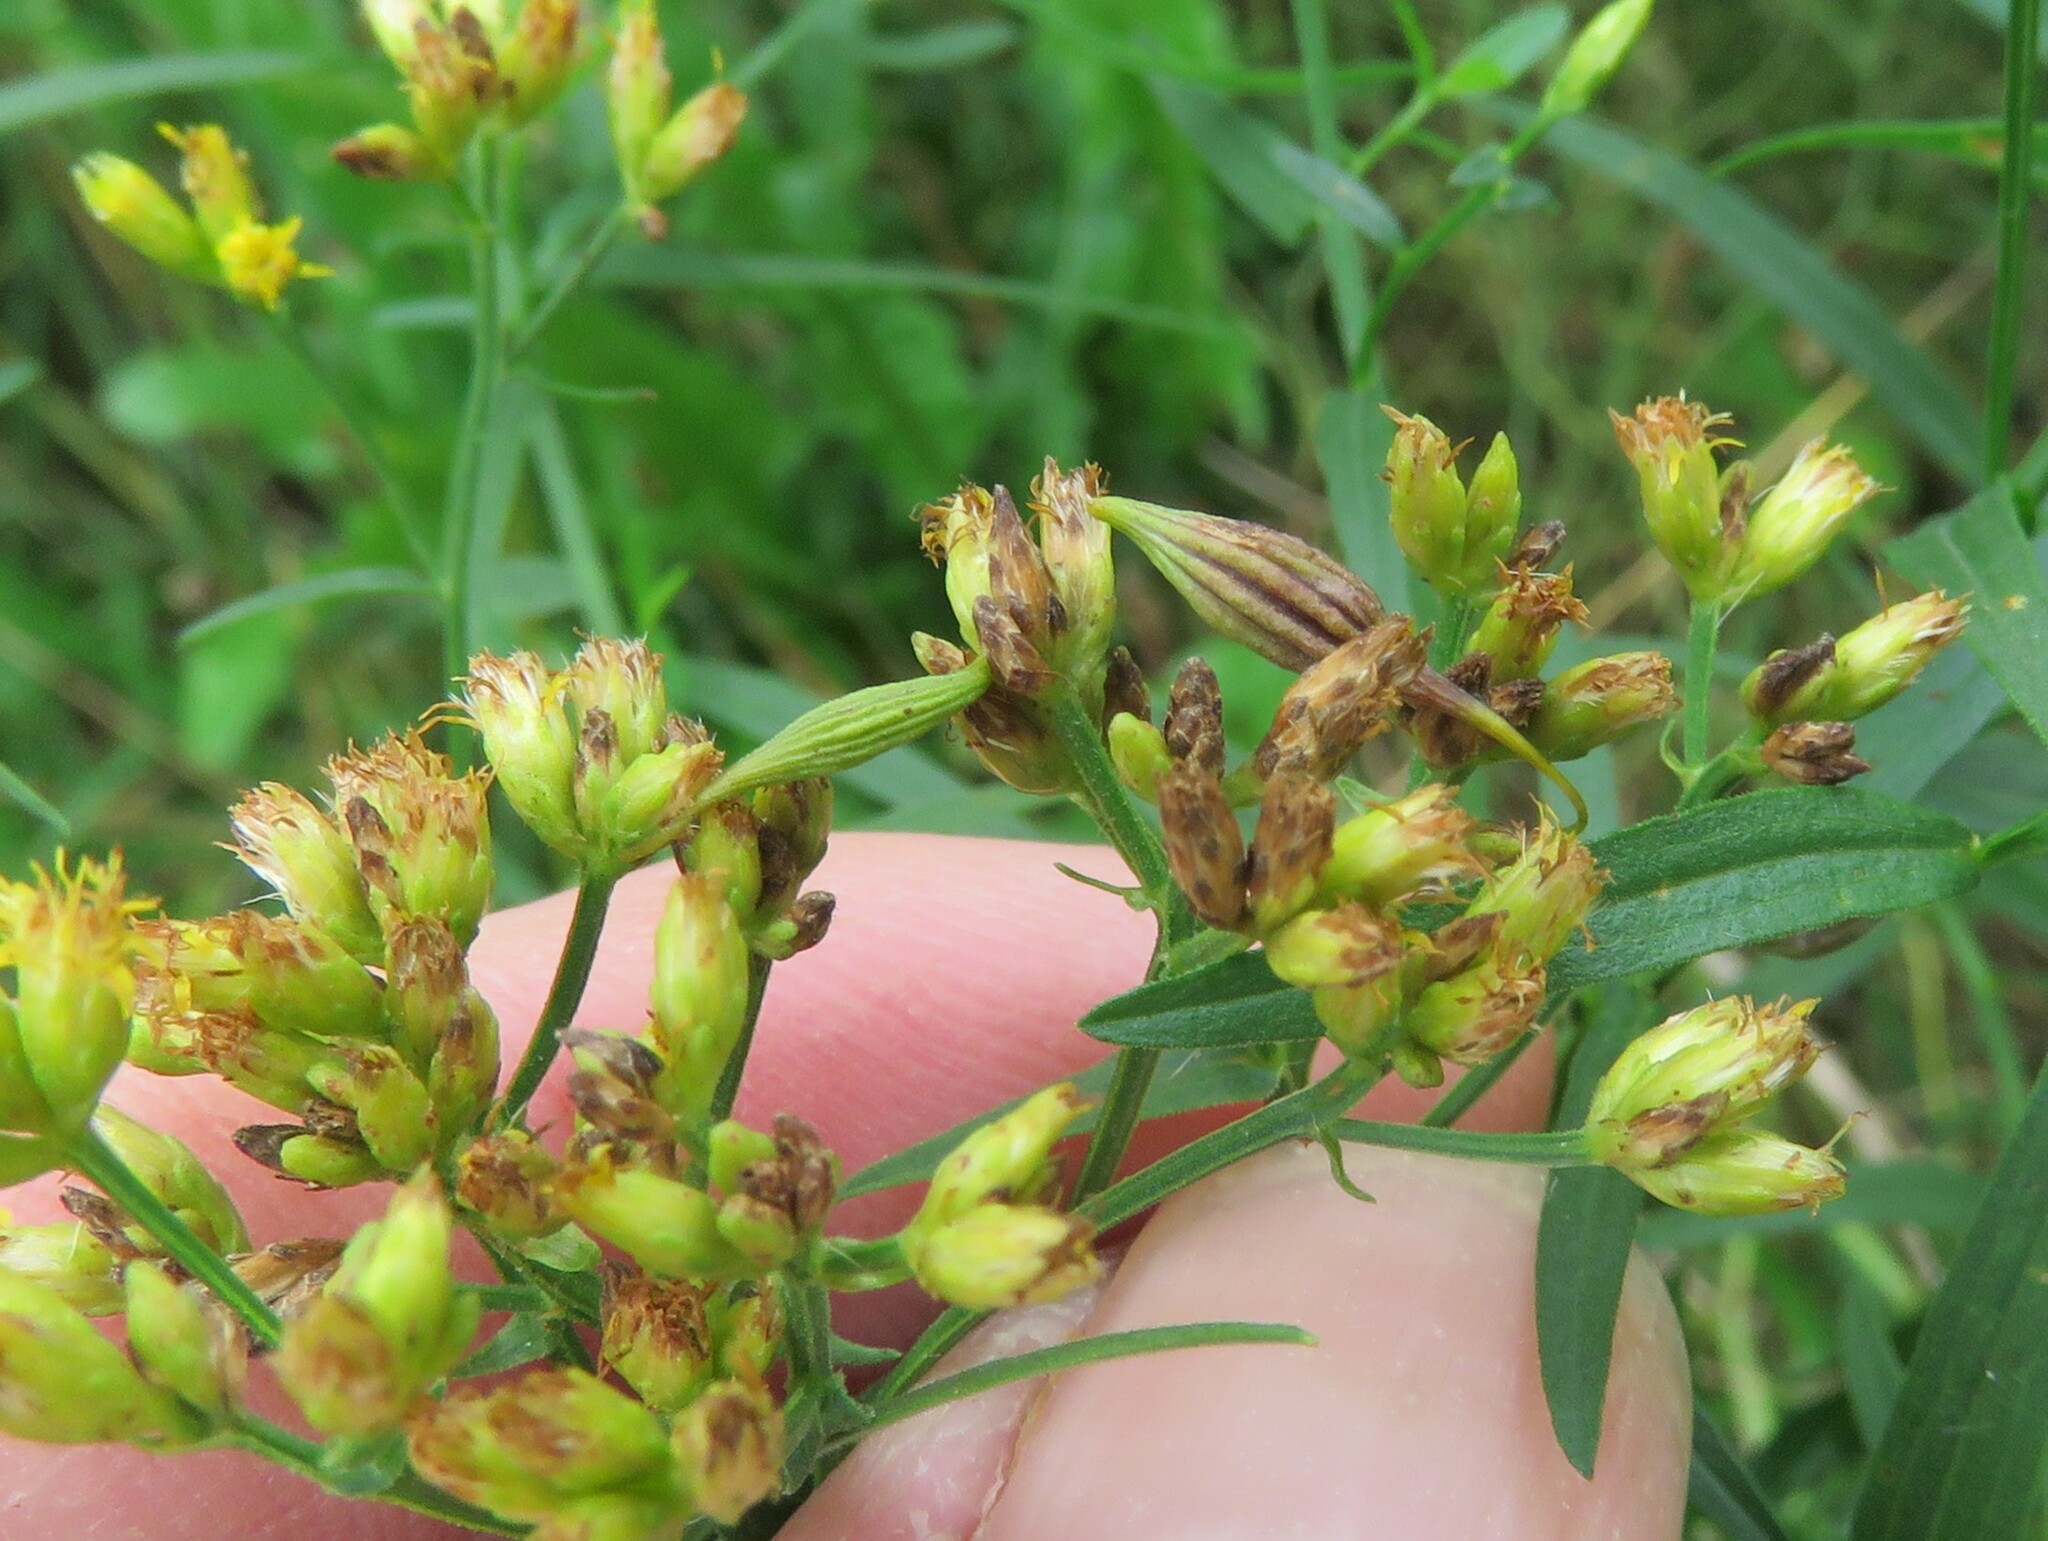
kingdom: Animalia
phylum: Arthropoda
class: Insecta
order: Diptera
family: Cecidomyiidae
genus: Rhopalomyia
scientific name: Rhopalomyia pedicellata
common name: Goldentop pedicellate gall midge
